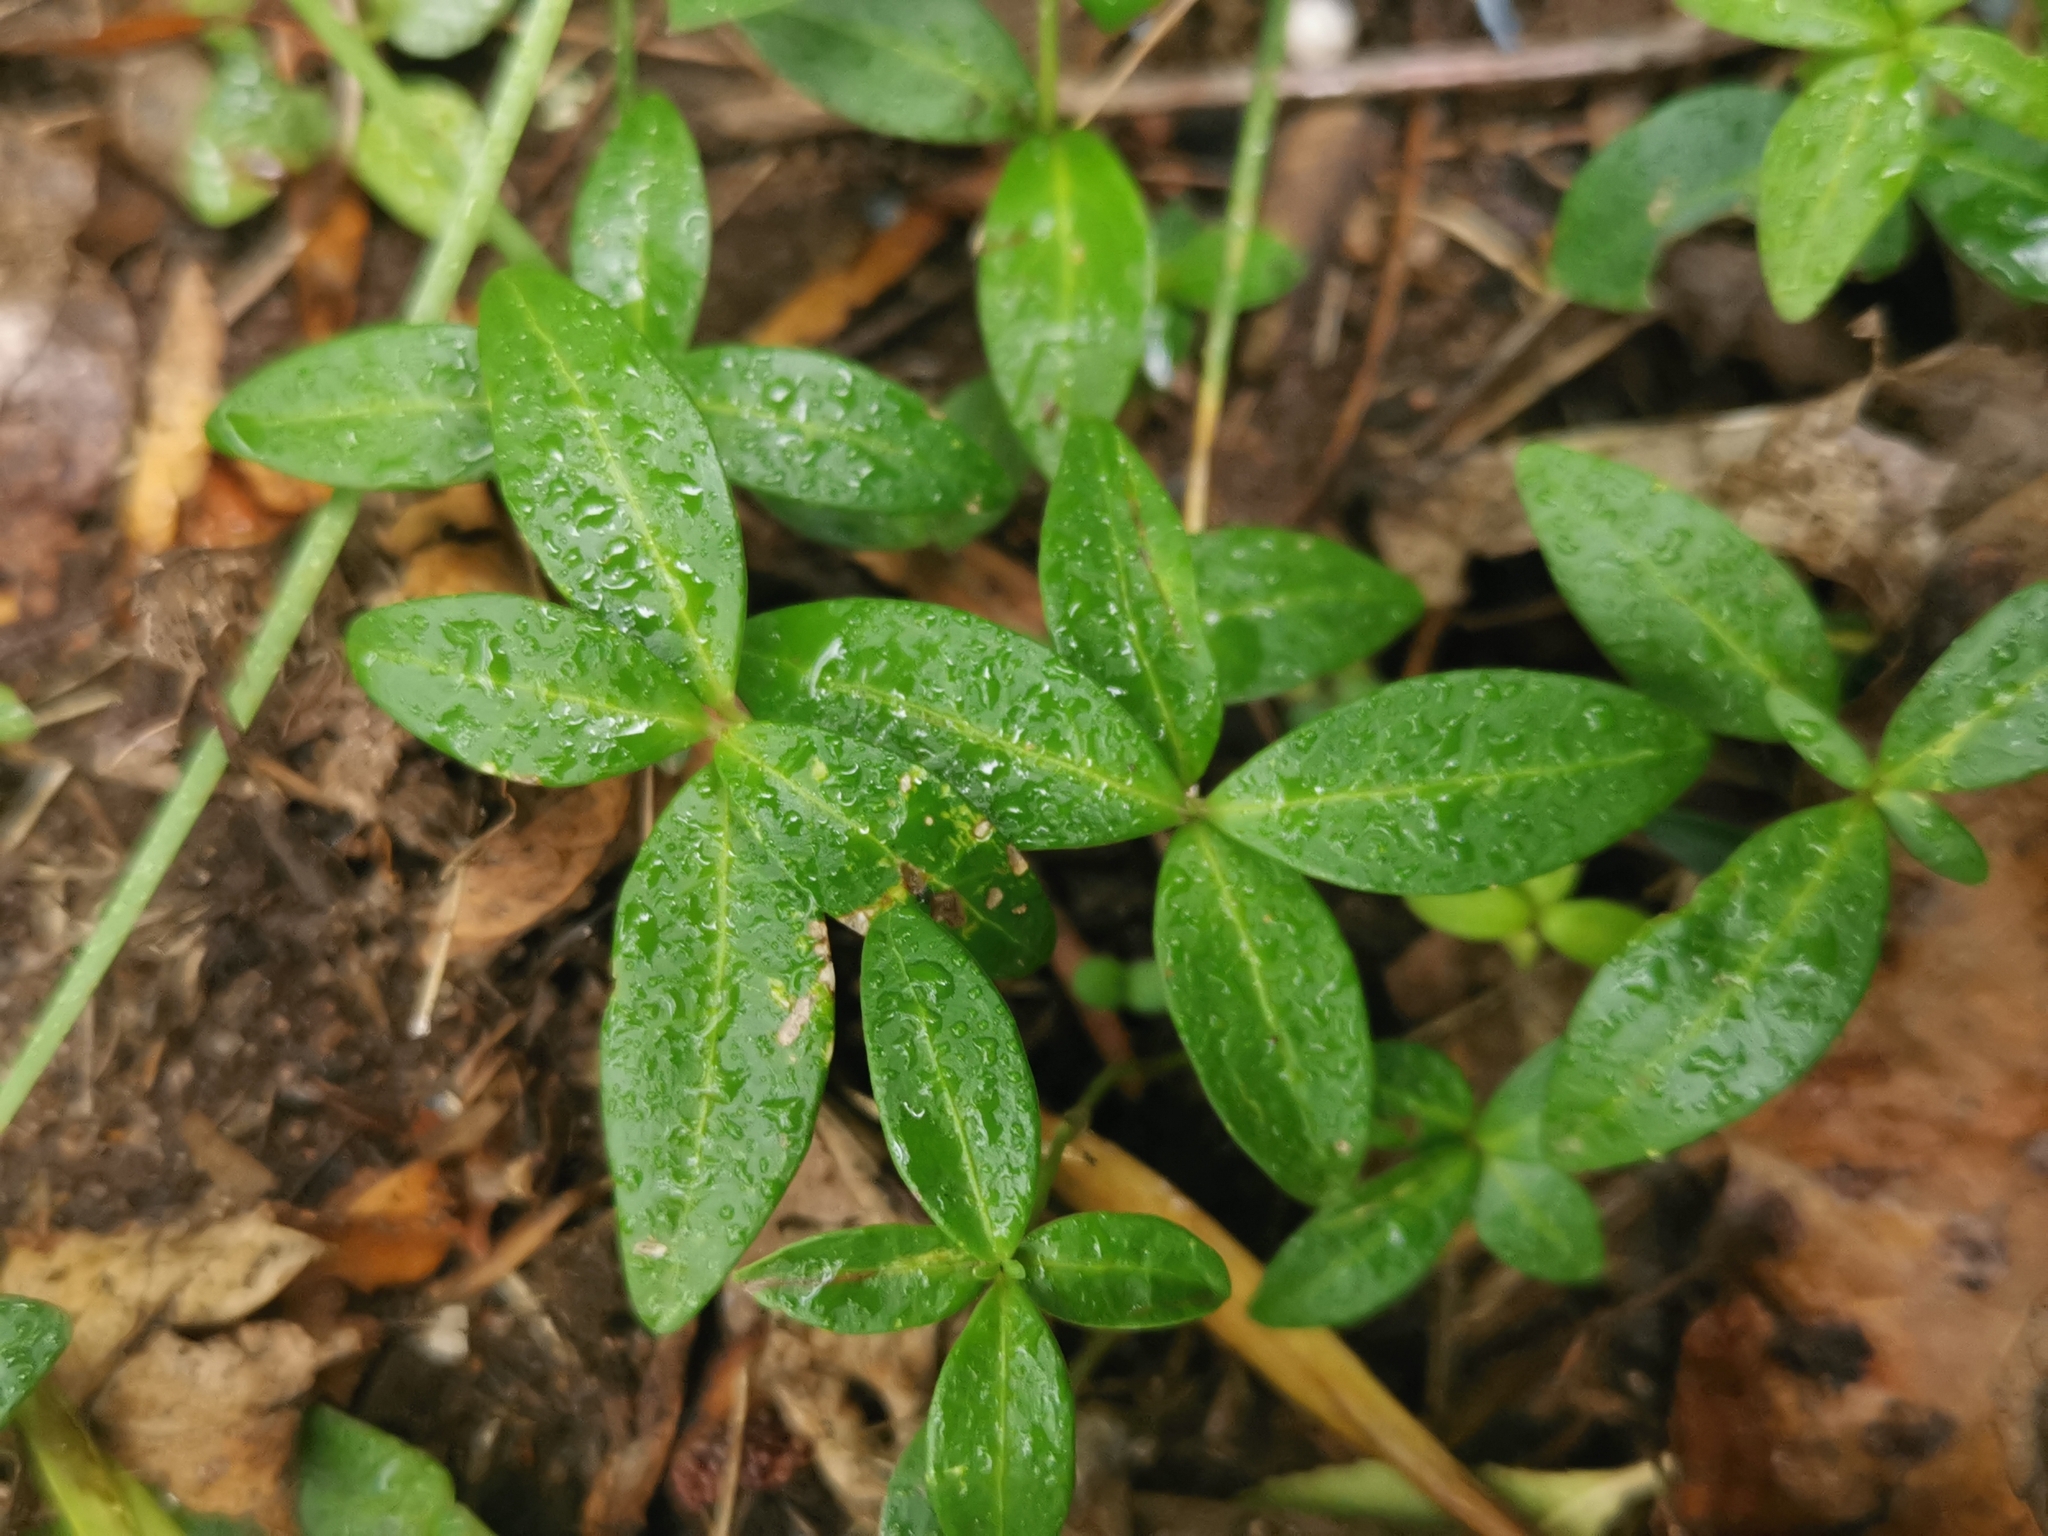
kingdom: Plantae
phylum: Tracheophyta
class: Magnoliopsida
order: Gentianales
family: Apocynaceae
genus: Vinca
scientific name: Vinca minor
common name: Lesser periwinkle
